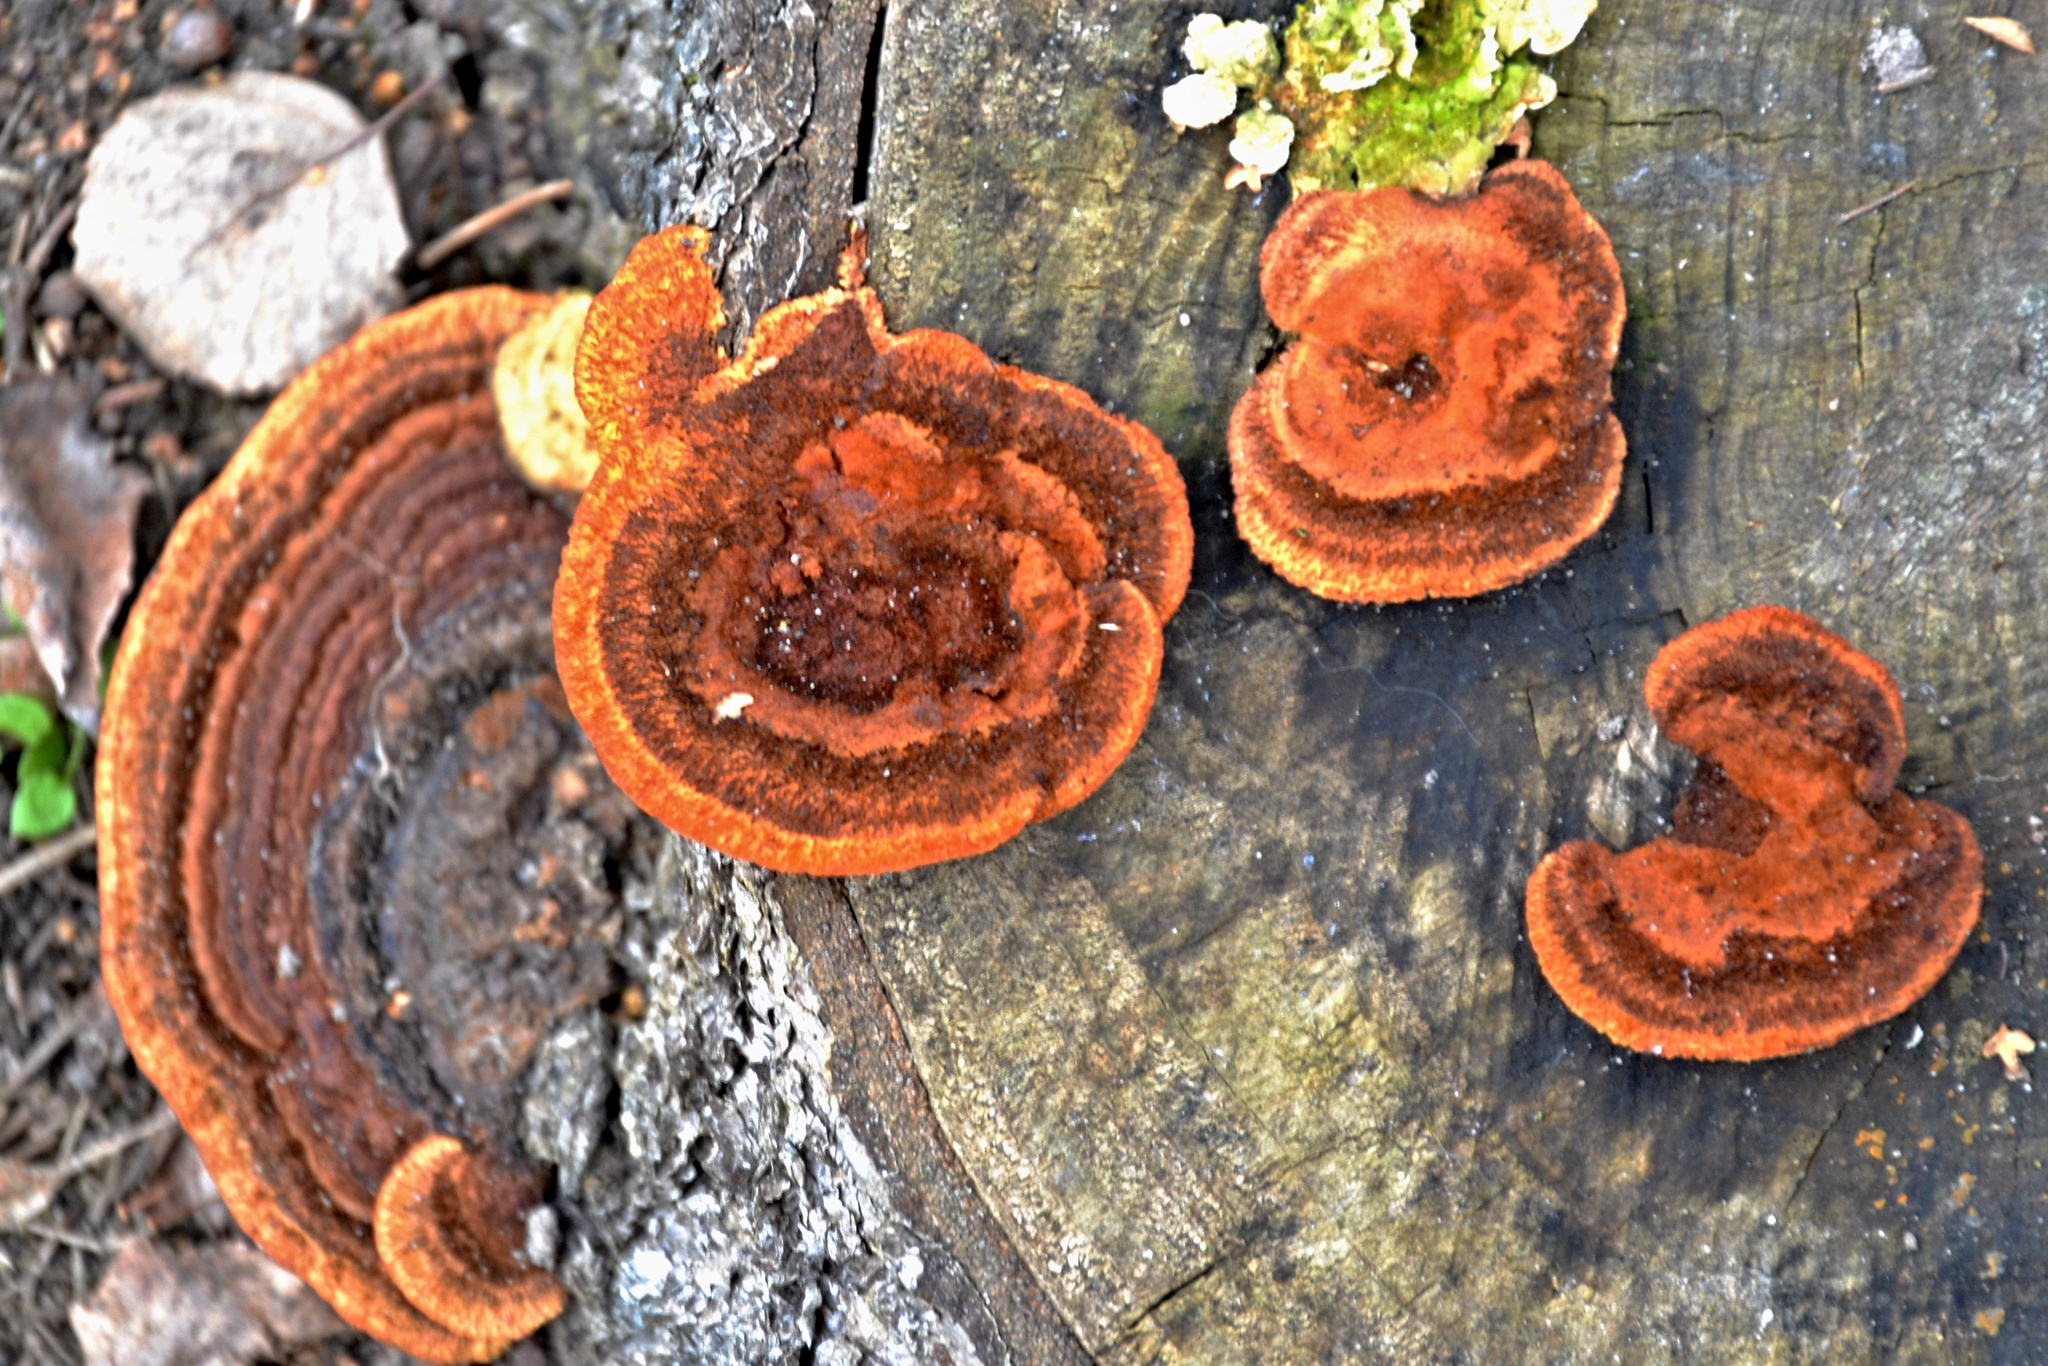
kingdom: Fungi
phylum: Basidiomycota
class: Agaricomycetes
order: Gloeophyllales
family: Gloeophyllaceae
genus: Gloeophyllum
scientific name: Gloeophyllum sepiarium
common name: Conifer mazegill
